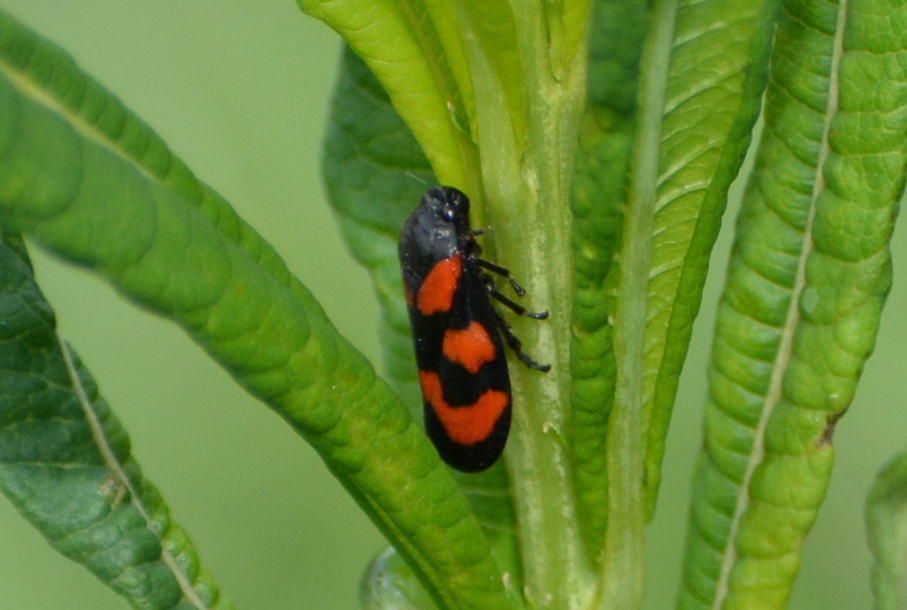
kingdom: Animalia
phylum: Arthropoda
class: Insecta
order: Hemiptera
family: Cercopidae
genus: Cercopis
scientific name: Cercopis vulnerata
